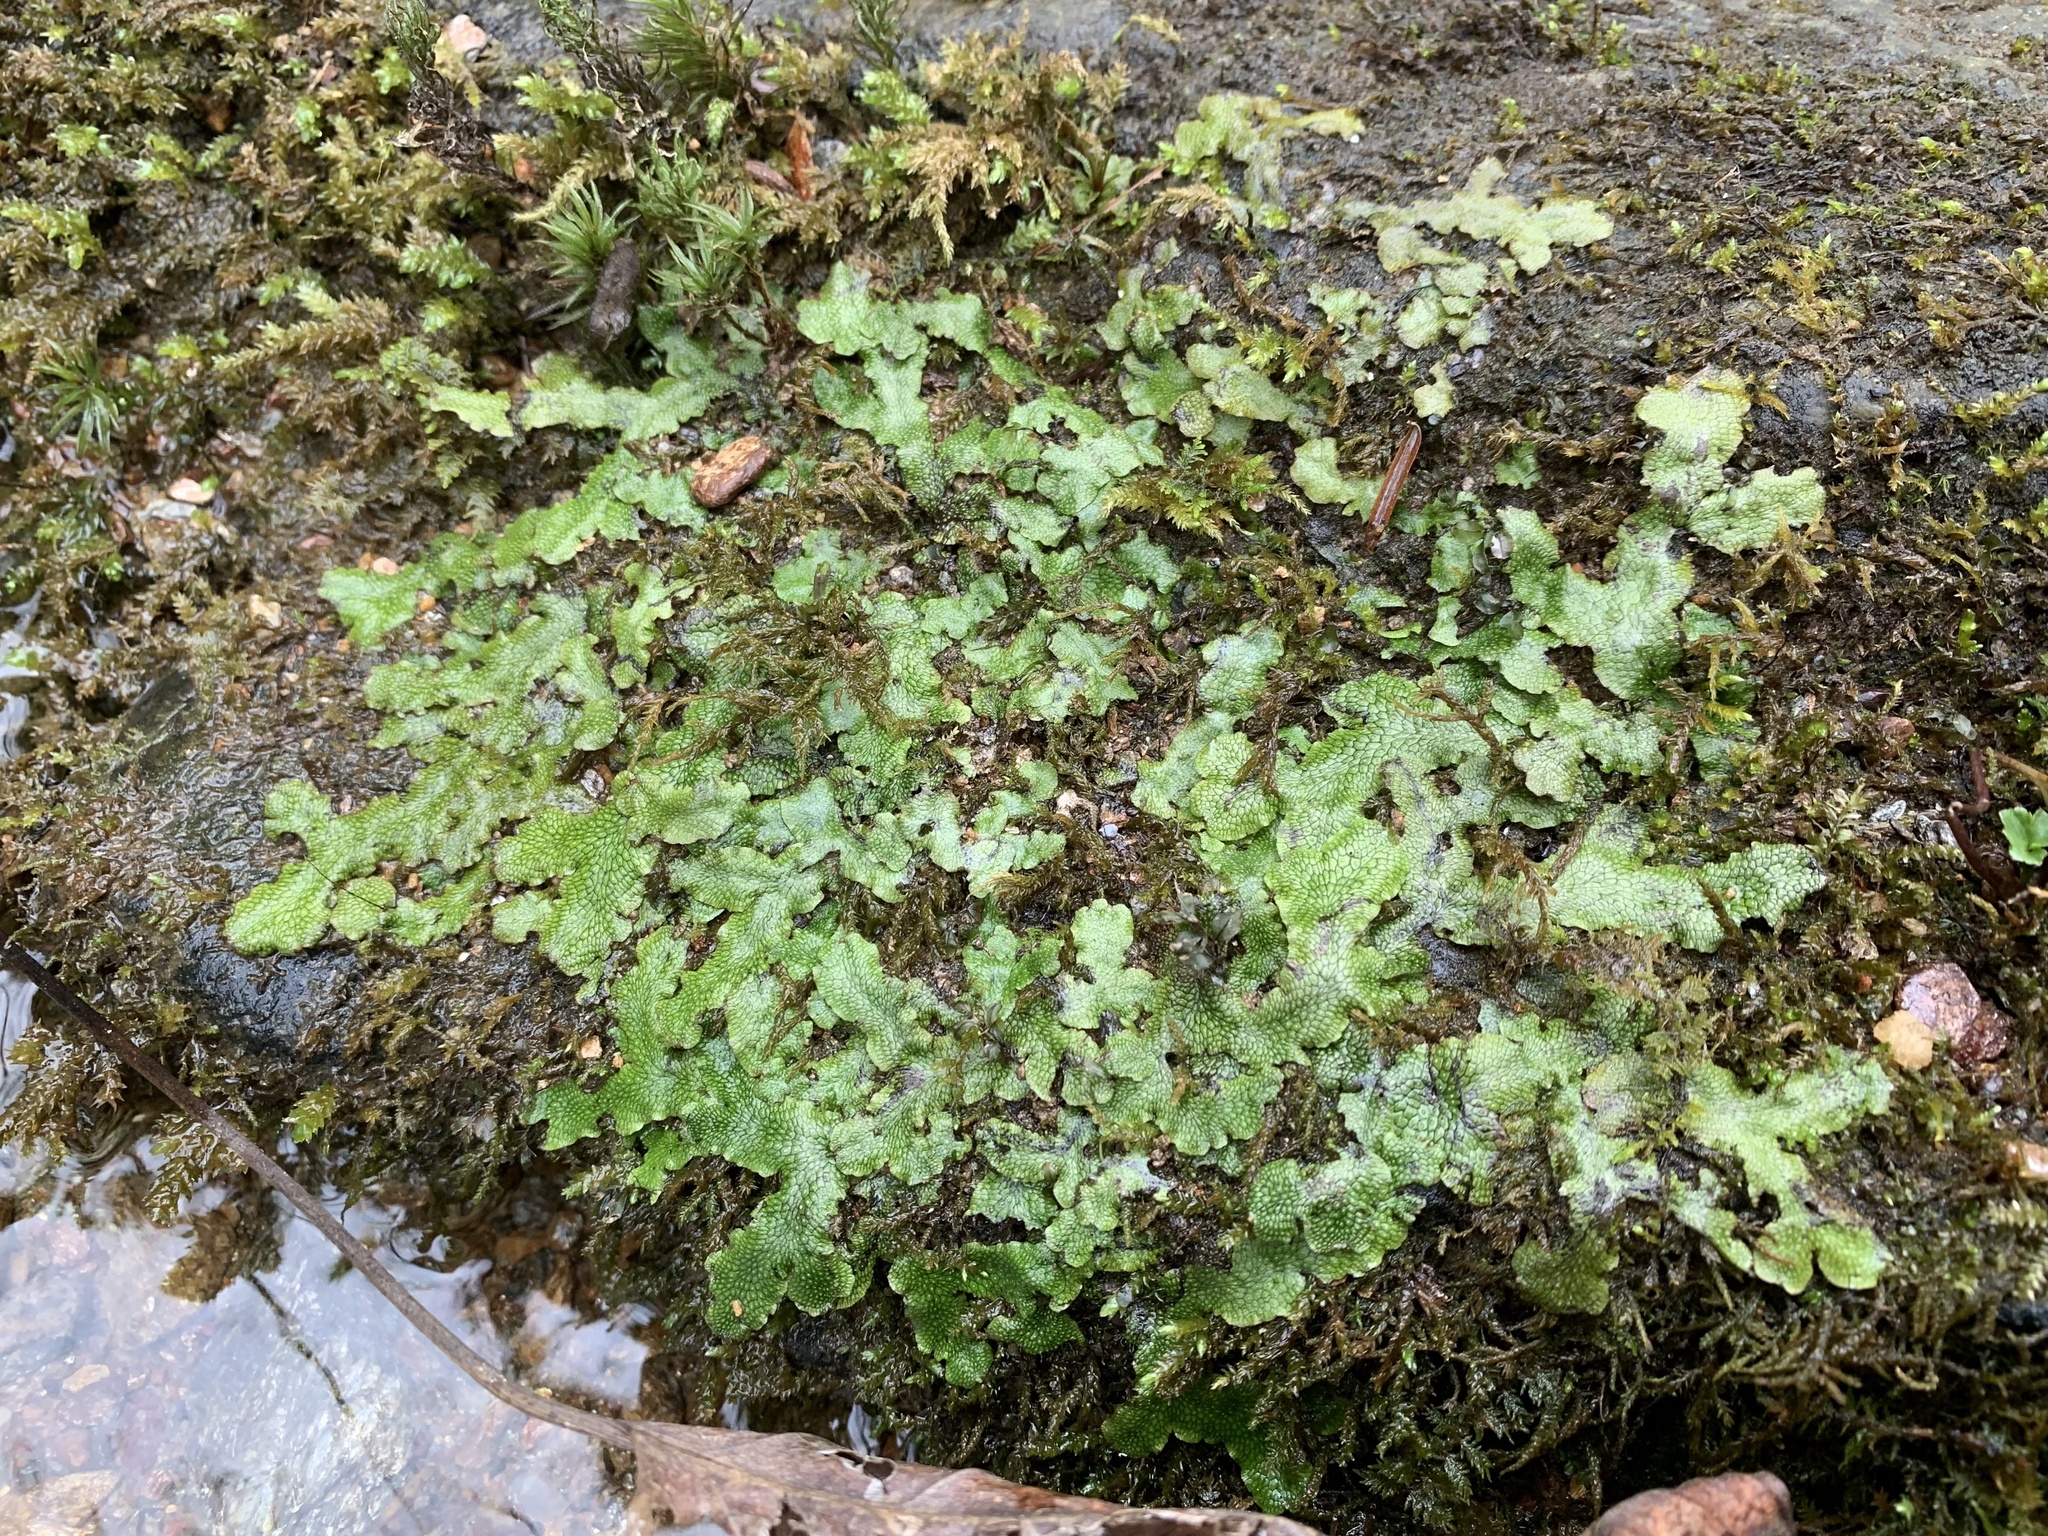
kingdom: Plantae
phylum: Marchantiophyta
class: Marchantiopsida
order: Marchantiales
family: Conocephalaceae
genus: Conocephalum
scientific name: Conocephalum salebrosum
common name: Cat-tongue liverwort
